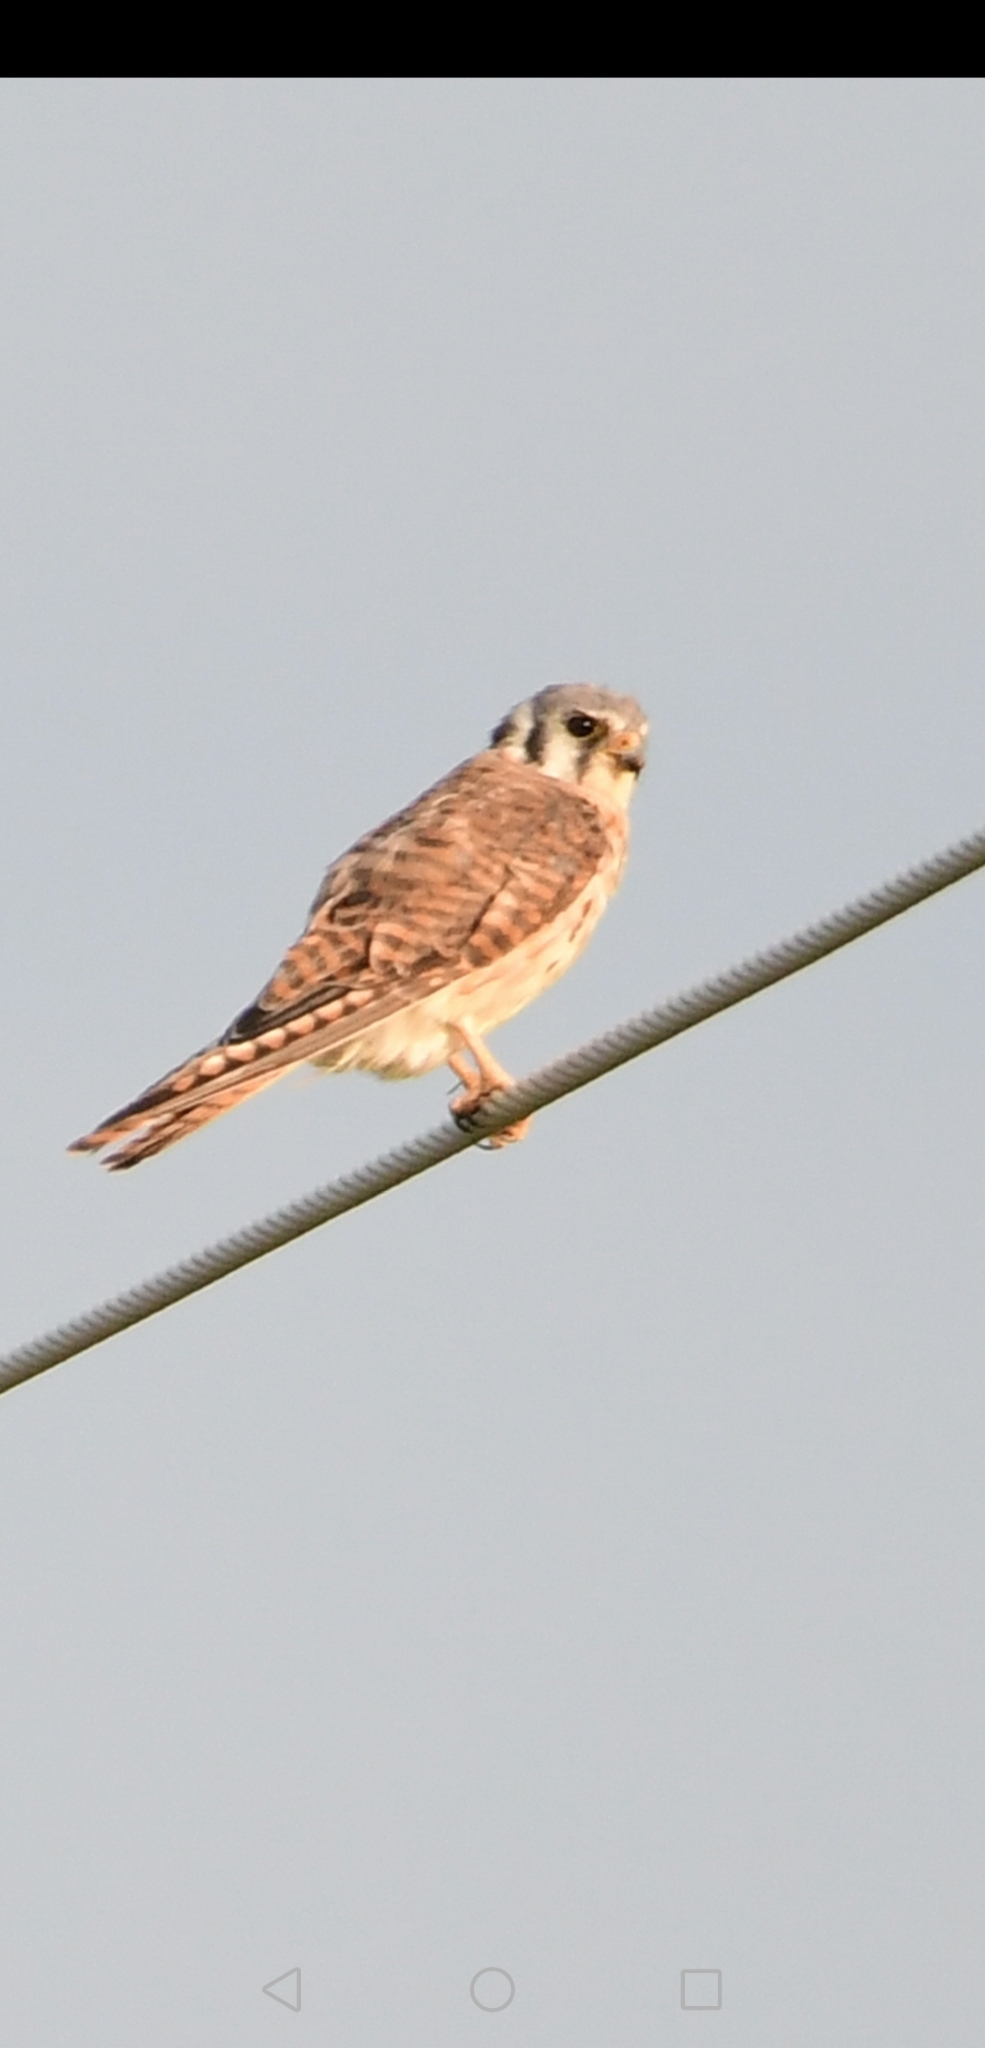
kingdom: Animalia
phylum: Chordata
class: Aves
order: Falconiformes
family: Falconidae
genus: Falco
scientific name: Falco sparverius
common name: American kestrel
